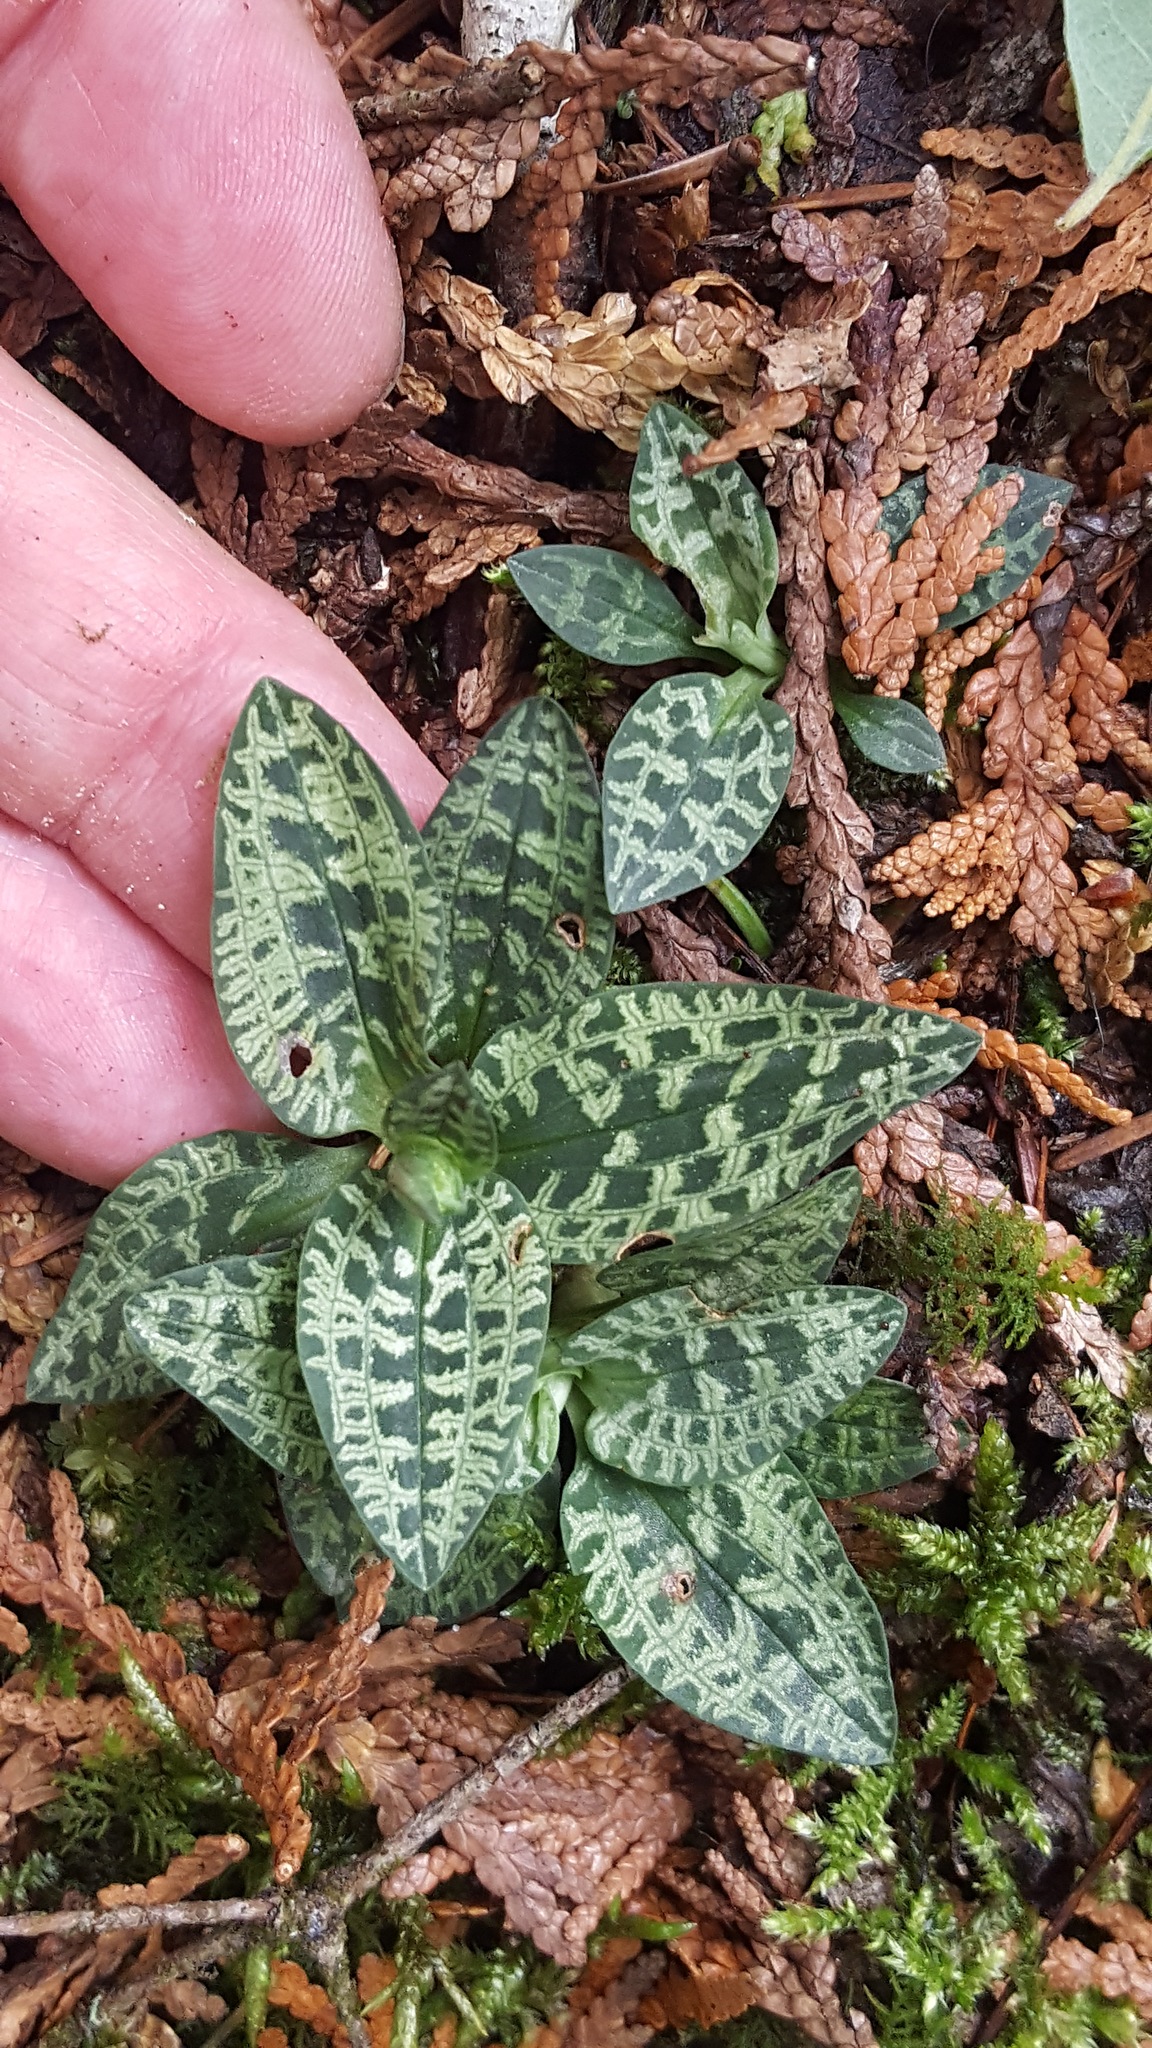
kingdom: Plantae
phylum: Tracheophyta
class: Liliopsida
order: Asparagales
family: Orchidaceae
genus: Goodyera
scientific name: Goodyera repens
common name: Creeping lady's-tresses
